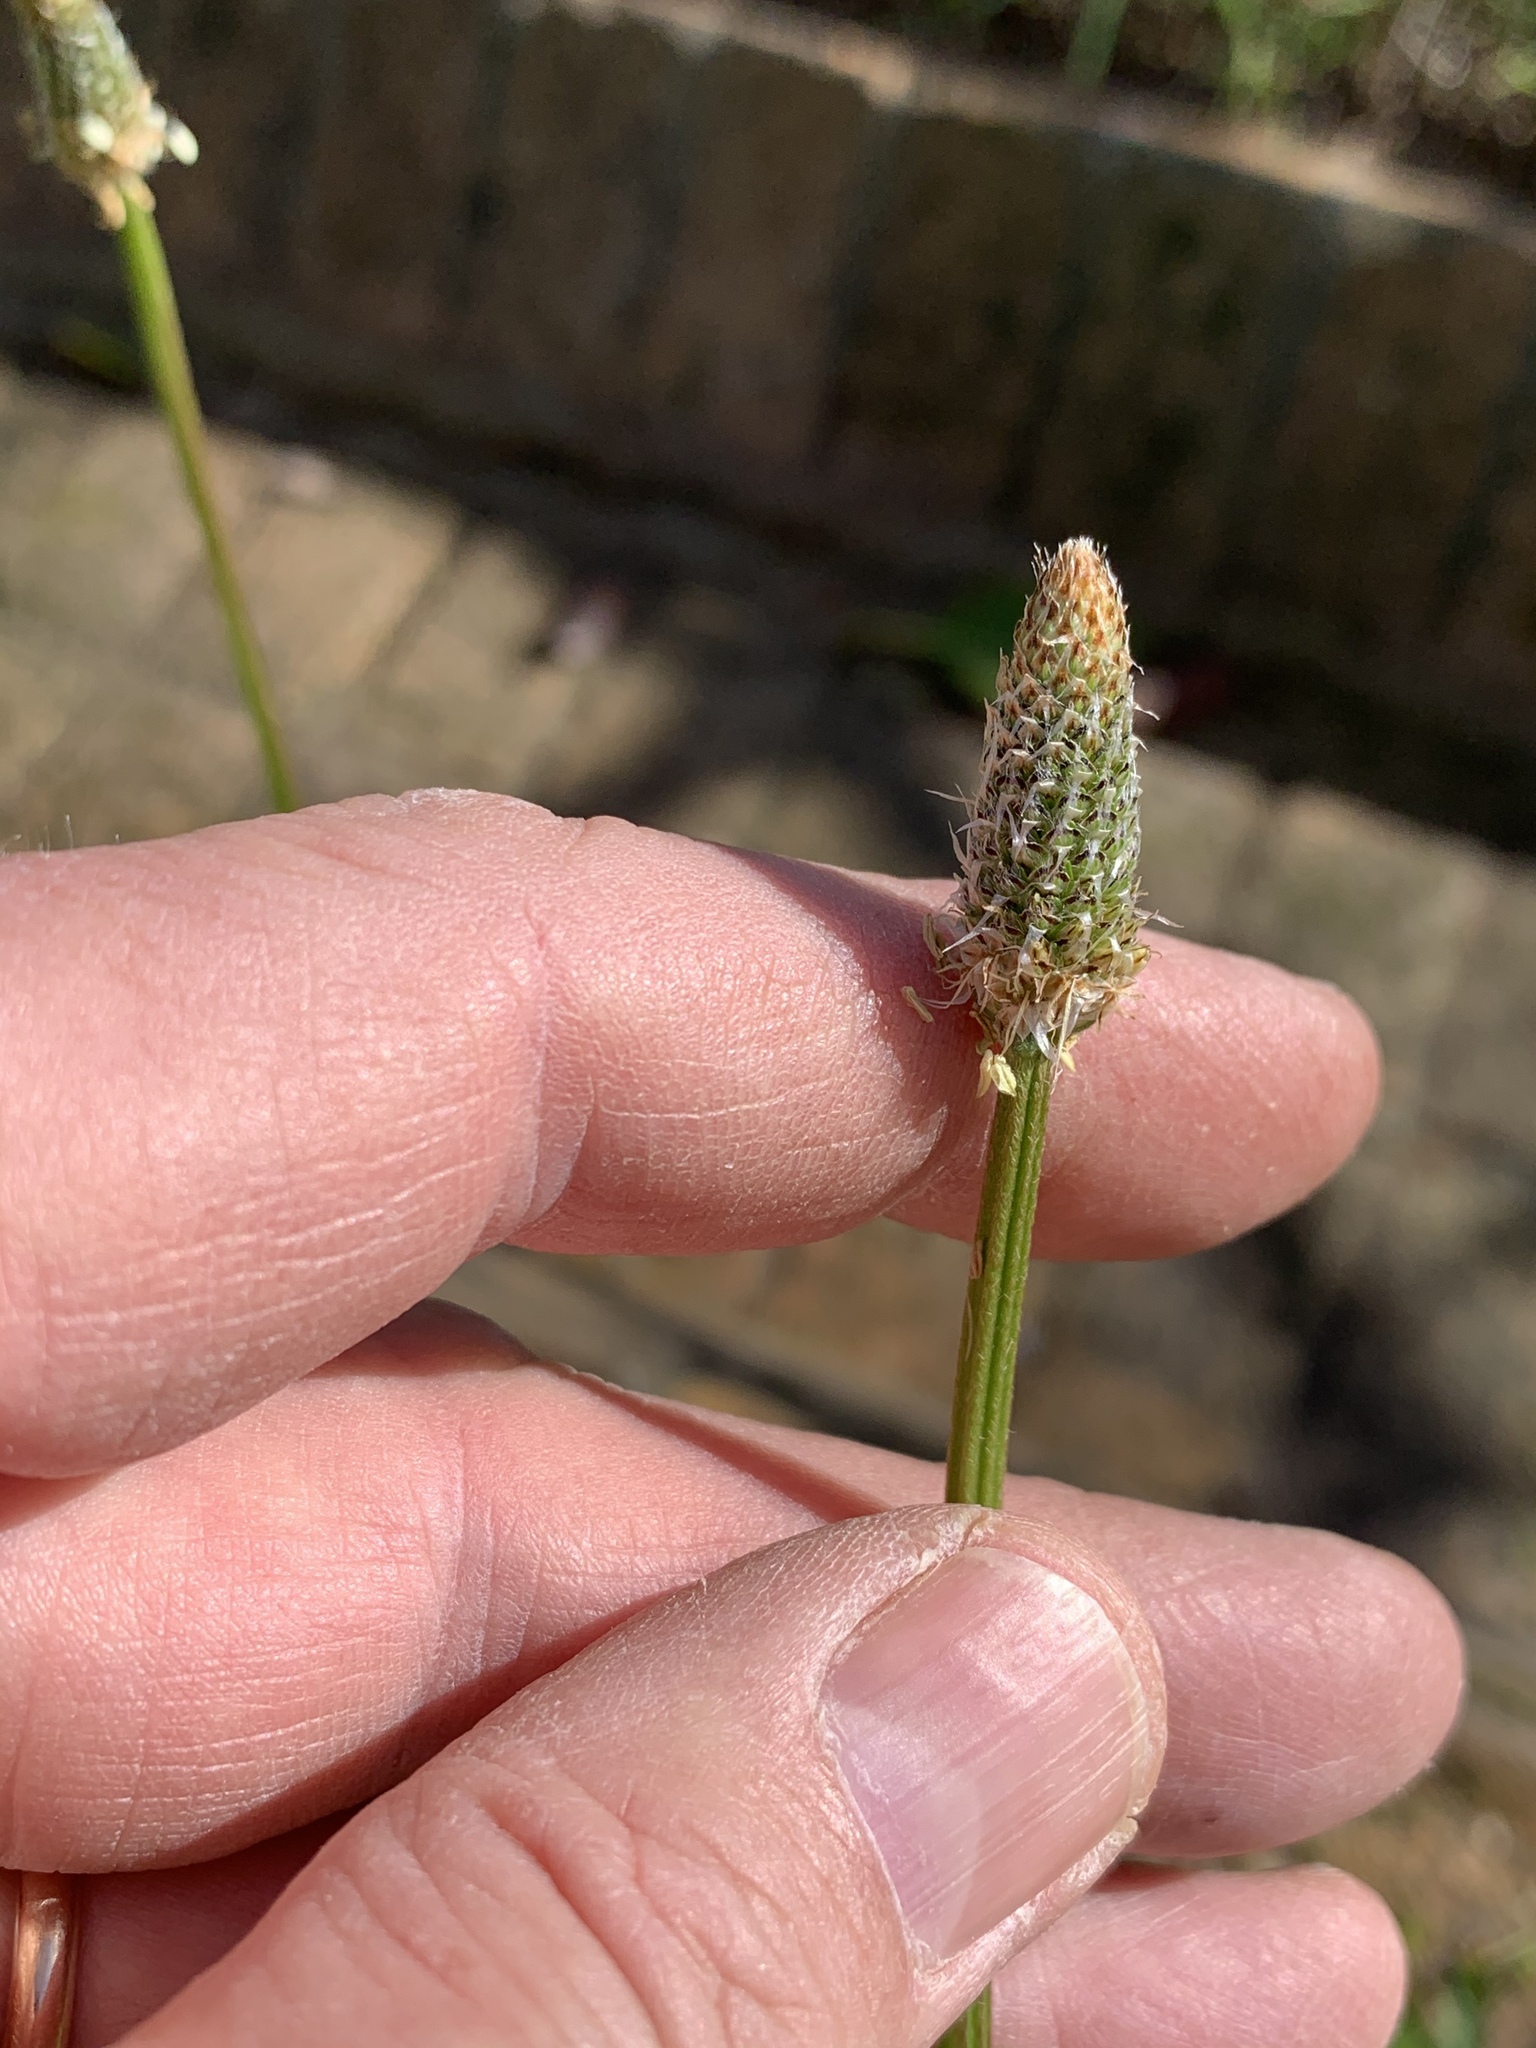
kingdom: Plantae
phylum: Tracheophyta
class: Magnoliopsida
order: Lamiales
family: Plantaginaceae
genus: Plantago
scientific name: Plantago lanceolata
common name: Ribwort plantain
